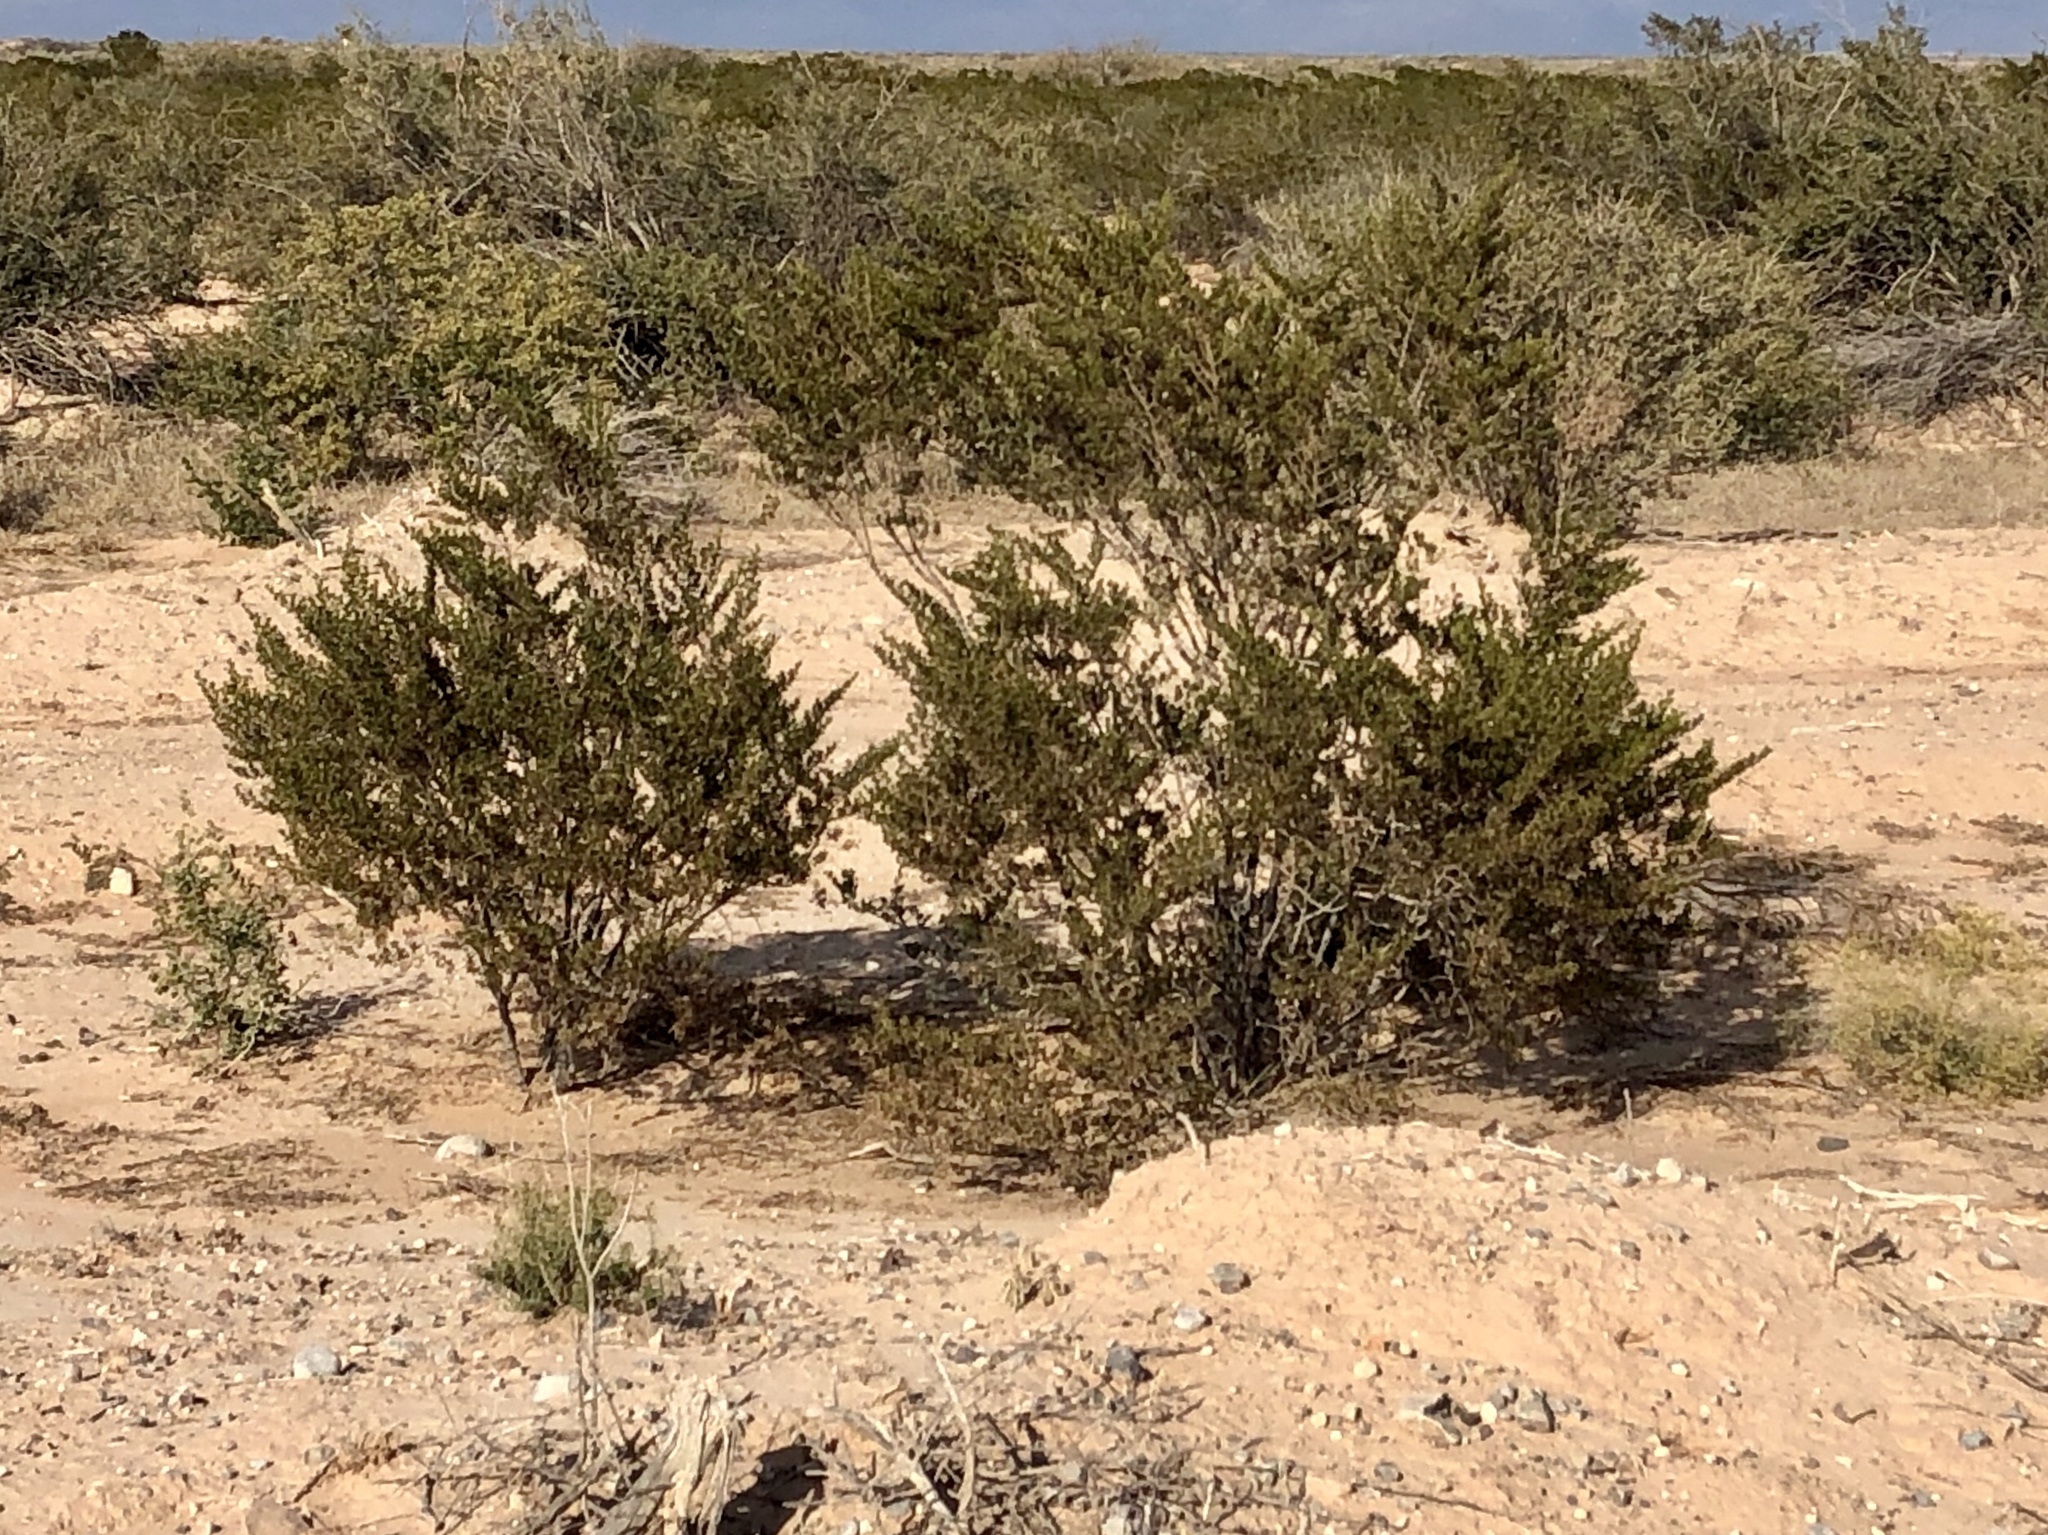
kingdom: Plantae
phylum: Tracheophyta
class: Magnoliopsida
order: Zygophyllales
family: Zygophyllaceae
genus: Larrea
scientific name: Larrea tridentata
